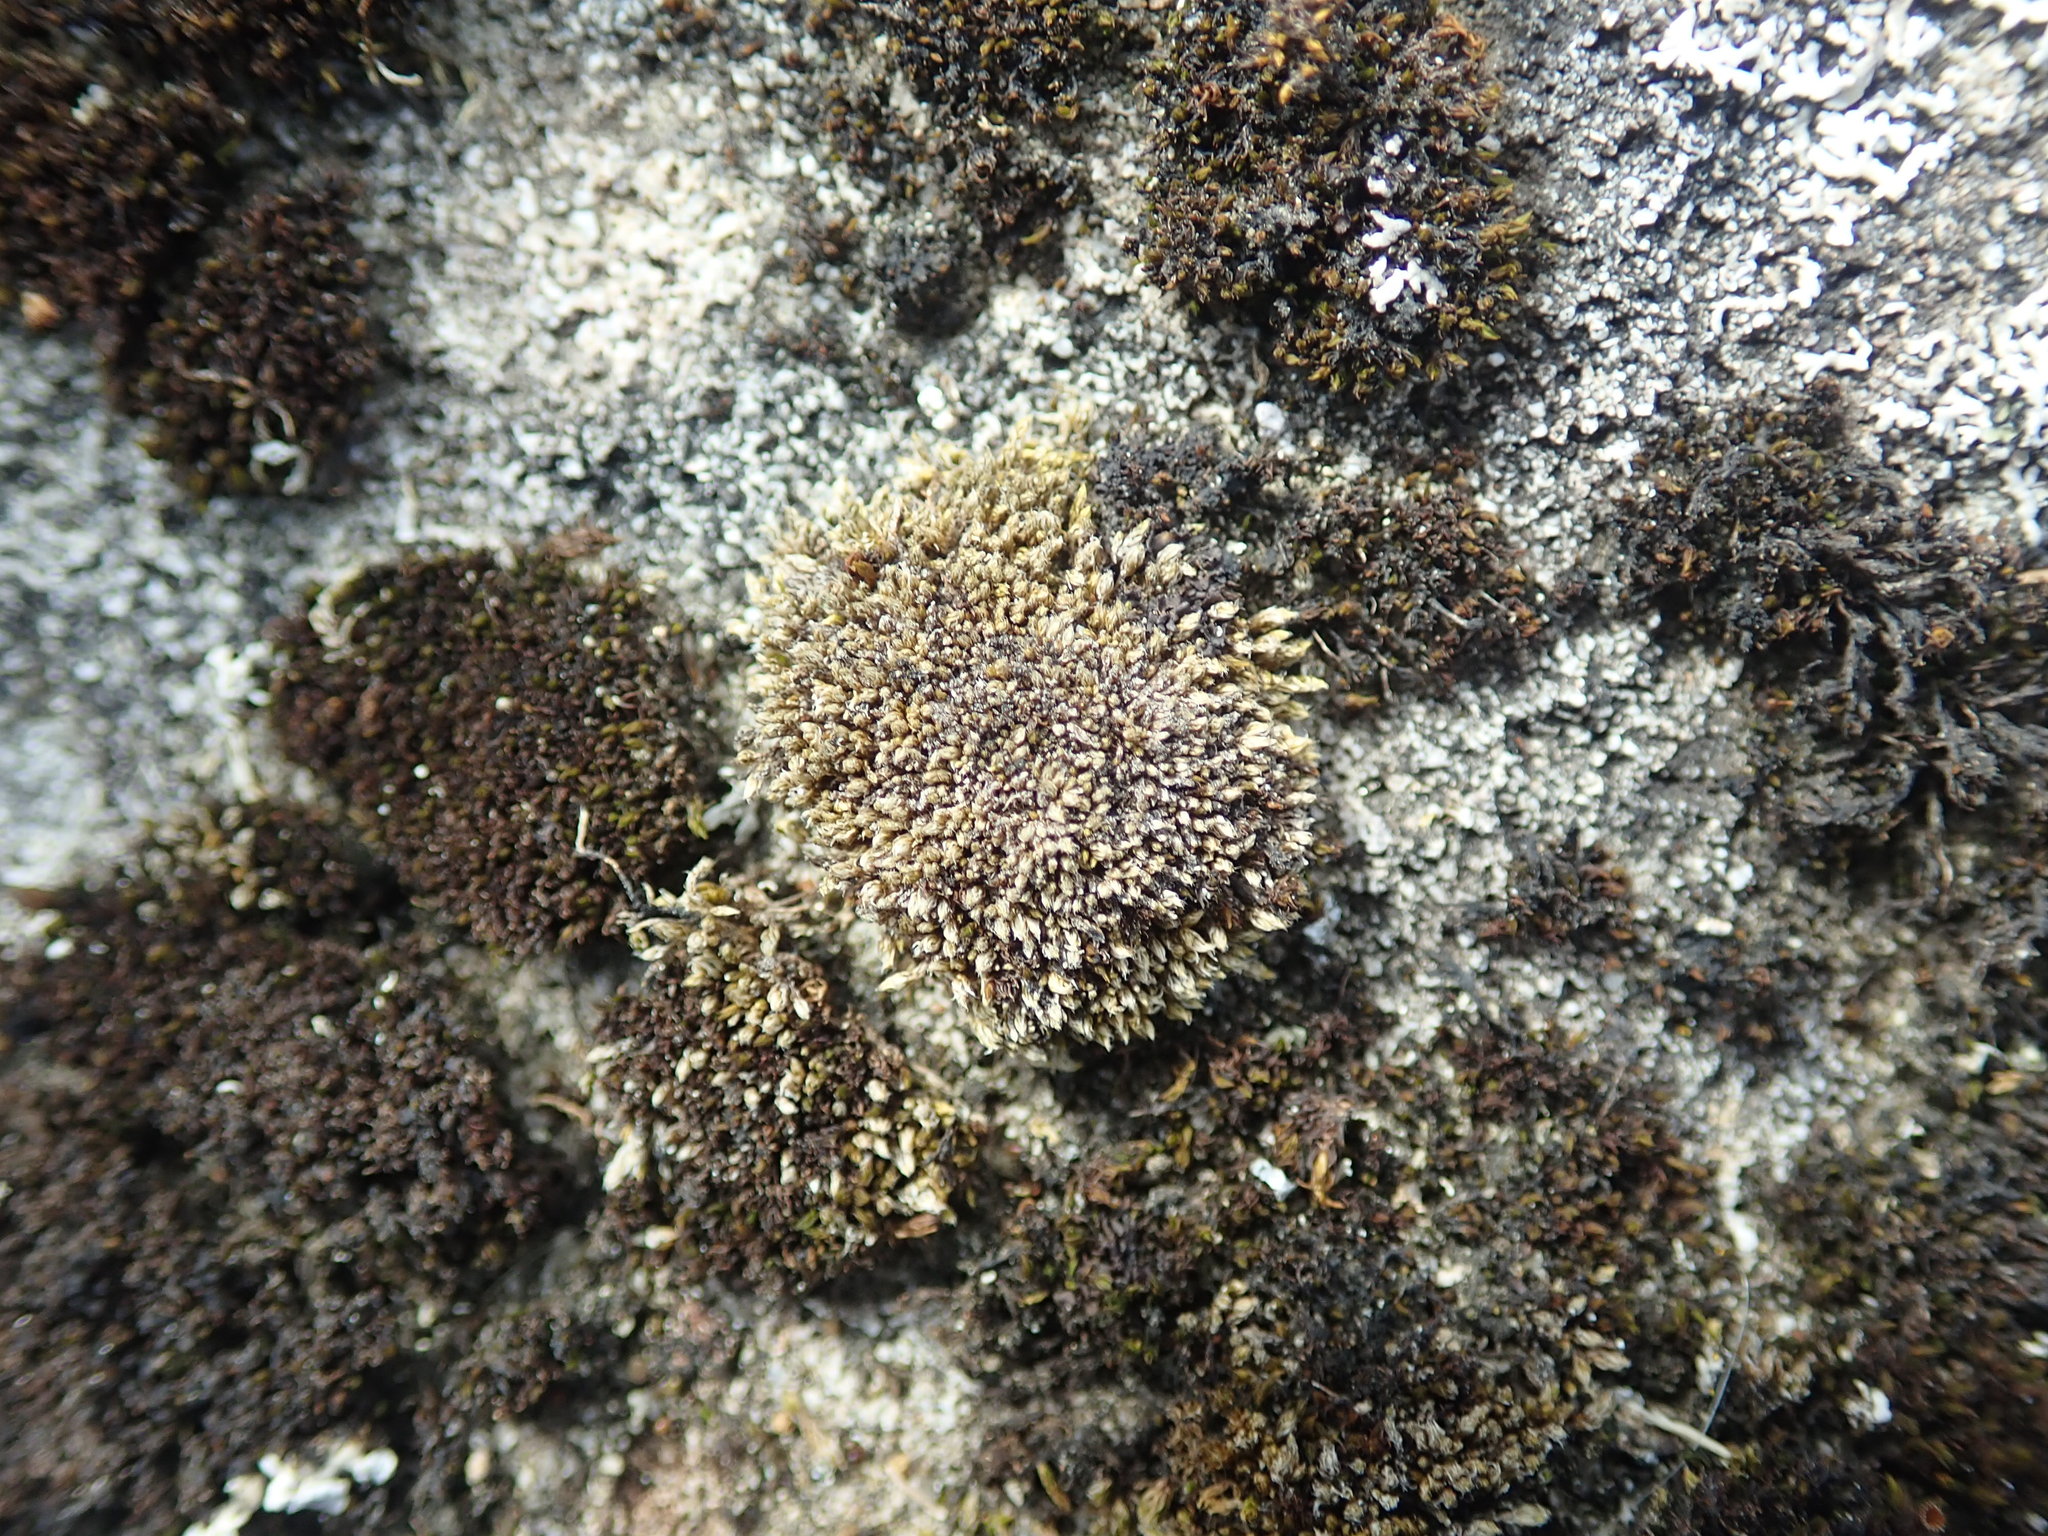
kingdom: Plantae
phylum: Bryophyta
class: Bryopsida
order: Bryales
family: Bryaceae
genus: Bryum
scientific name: Bryum argenteum
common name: Silver-moss
